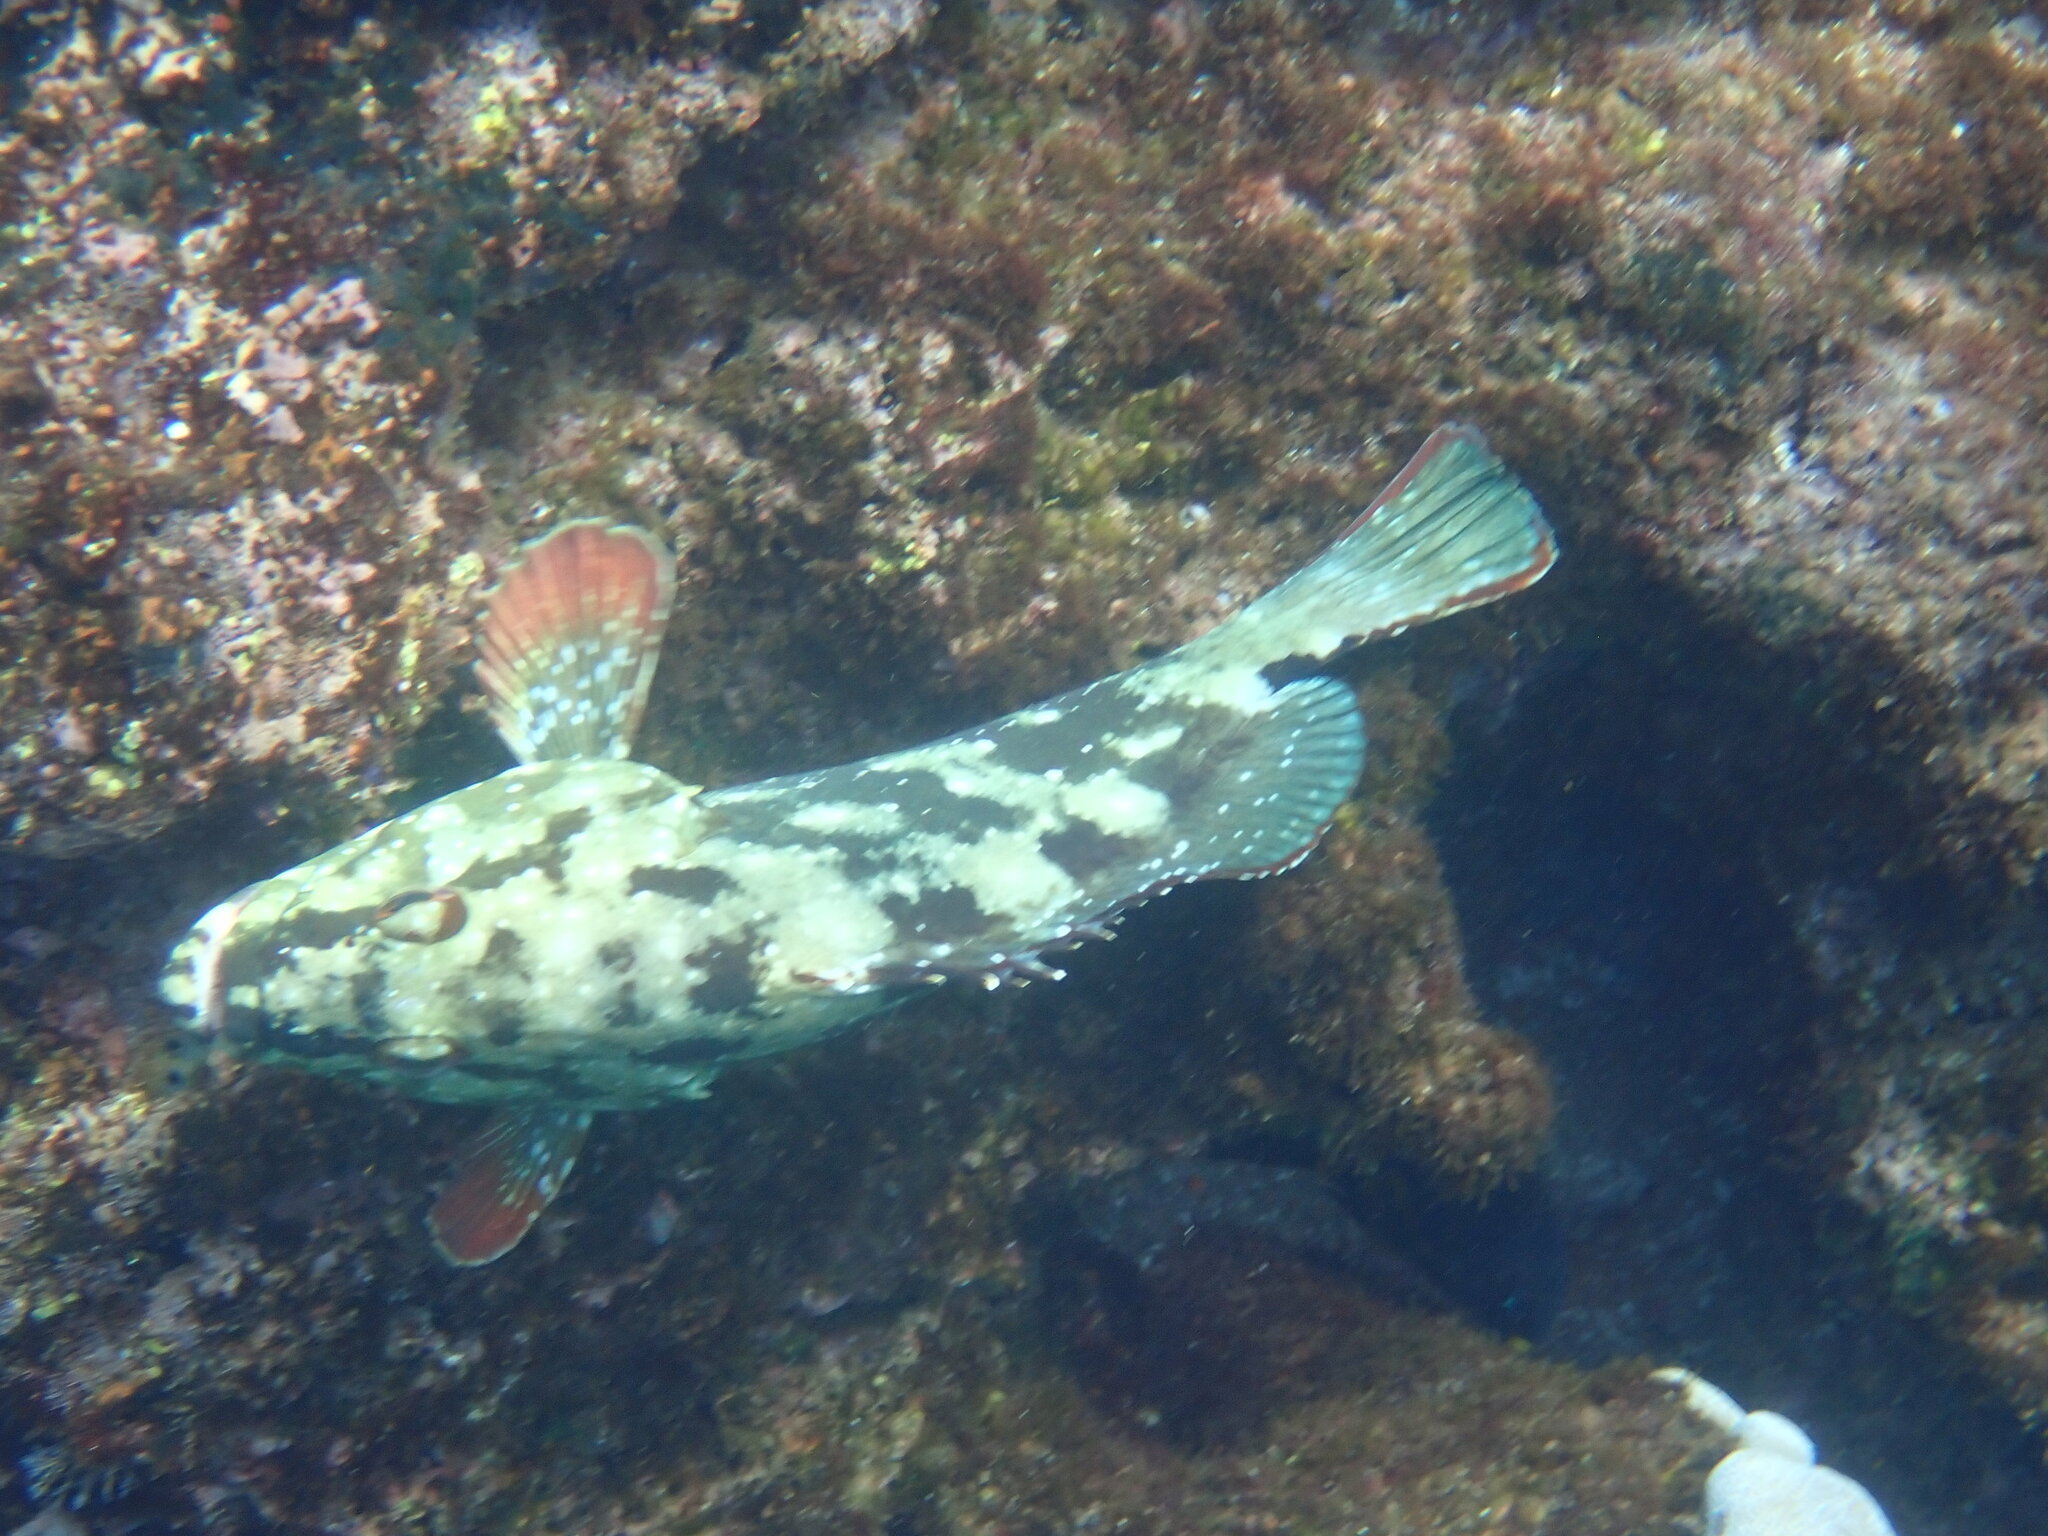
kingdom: Animalia
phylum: Chordata
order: Perciformes
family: Serranidae
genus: Epinephelus
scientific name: Epinephelus labriformis
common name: Flag cabrilla
